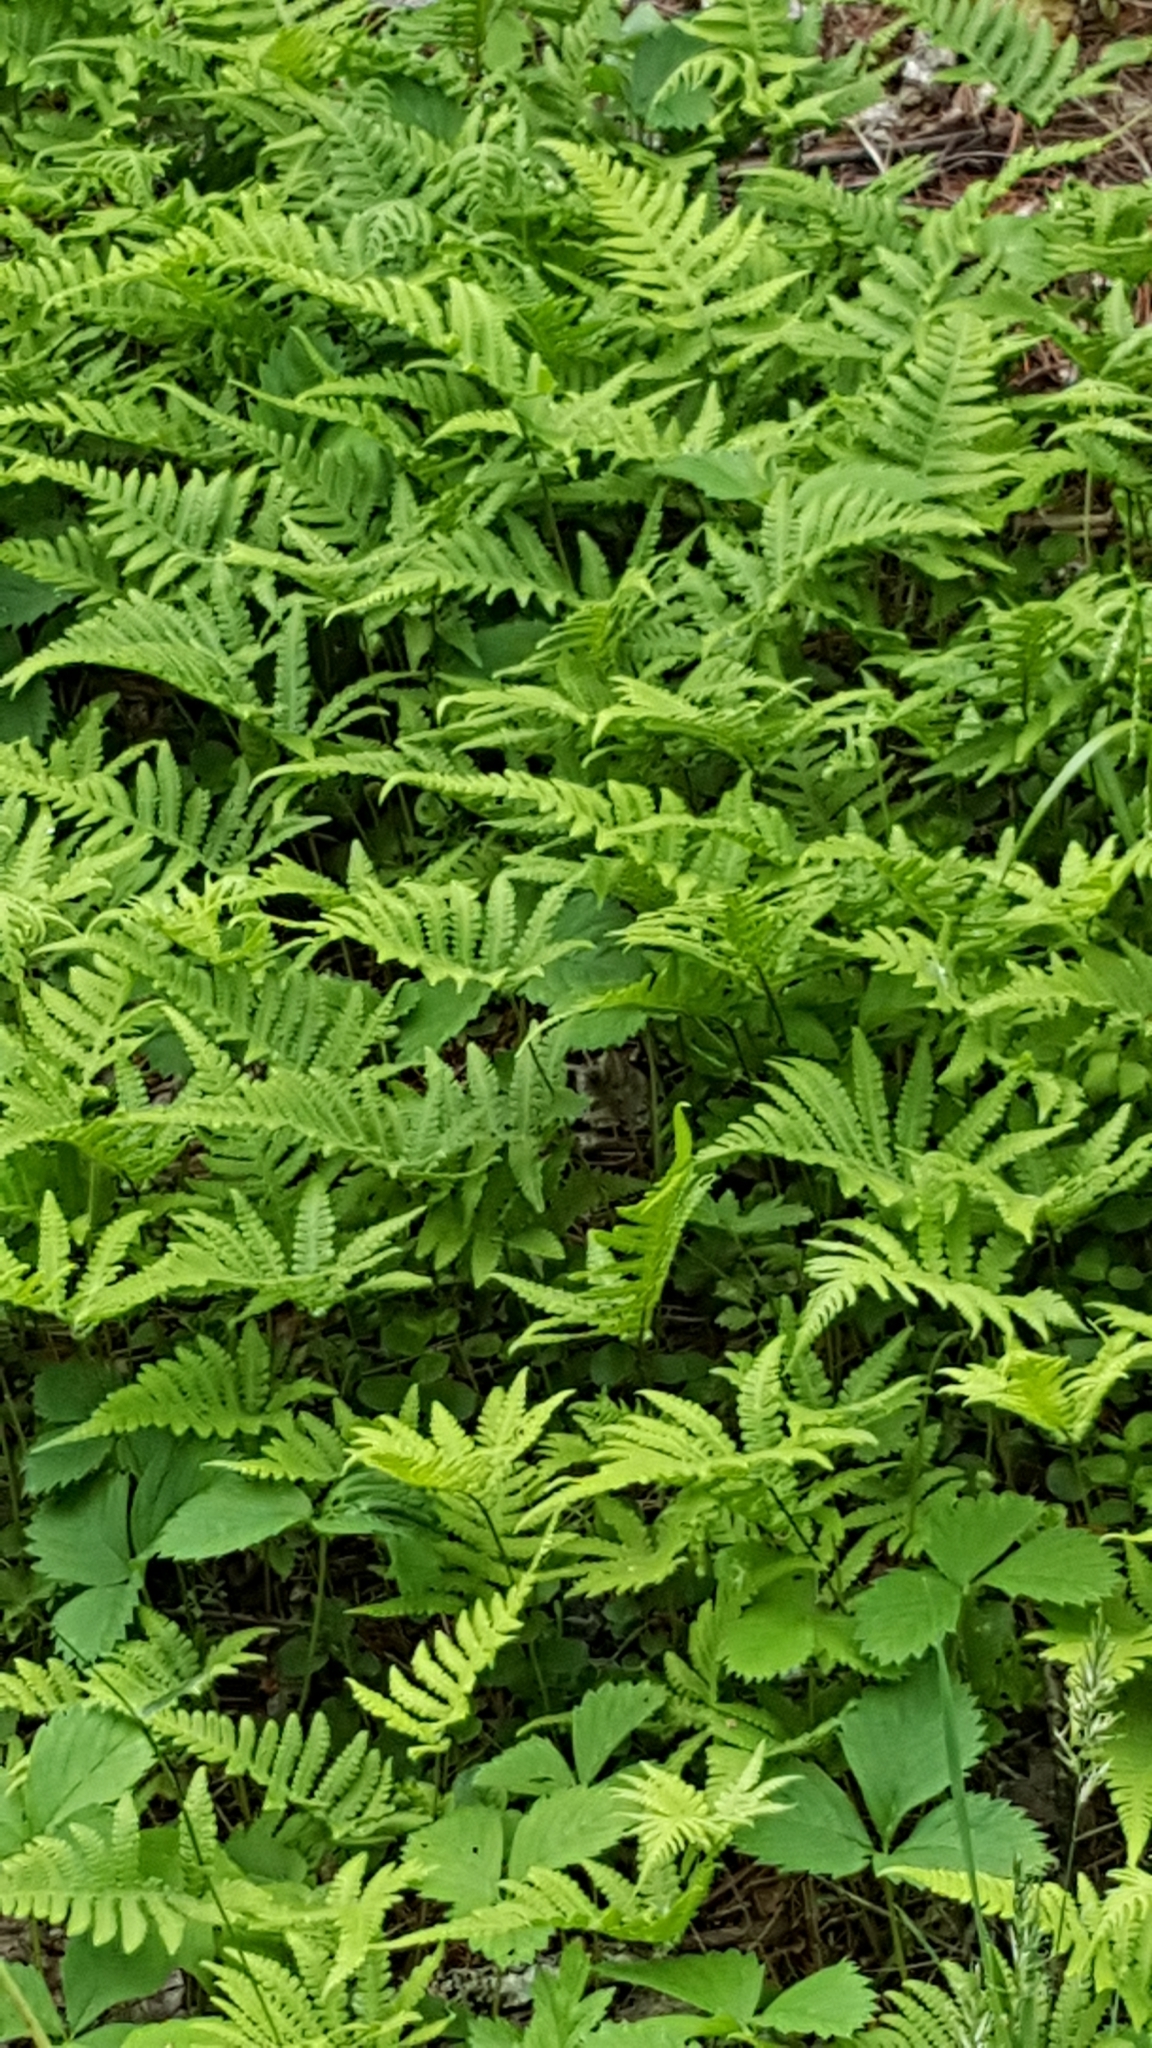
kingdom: Plantae
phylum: Tracheophyta
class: Polypodiopsida
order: Polypodiales
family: Thelypteridaceae
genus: Phegopteris
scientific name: Phegopteris connectilis
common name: Beech fern
